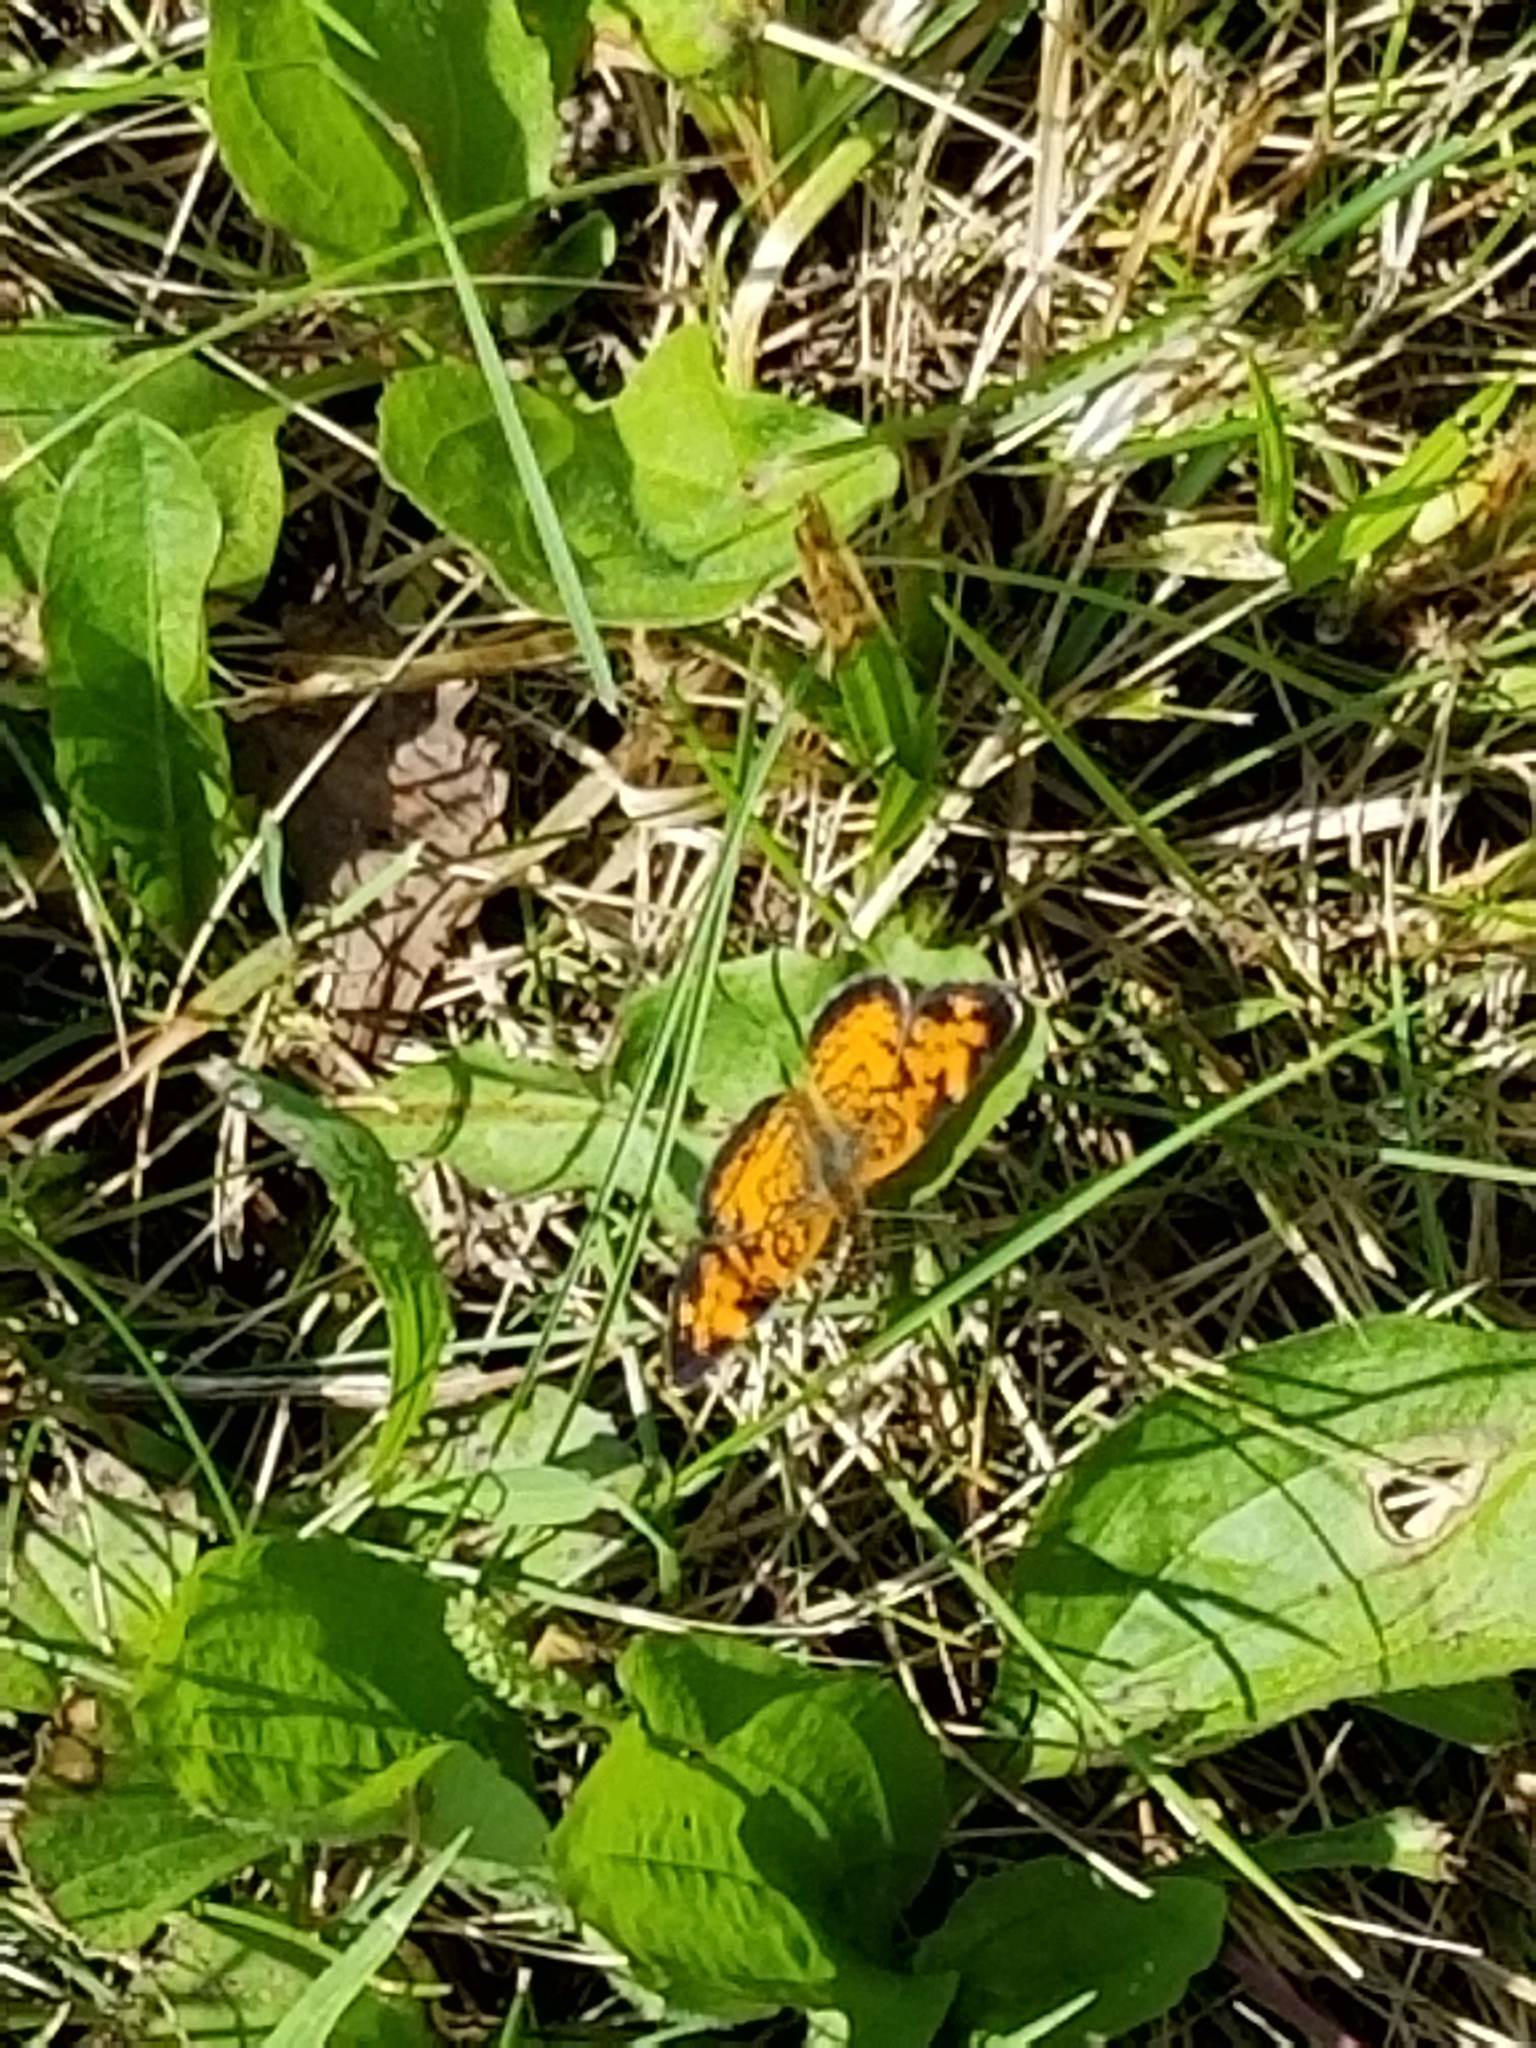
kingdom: Animalia
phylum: Arthropoda
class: Insecta
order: Lepidoptera
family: Nymphalidae
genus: Phyciodes
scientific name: Phyciodes tharos
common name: Pearl crescent
